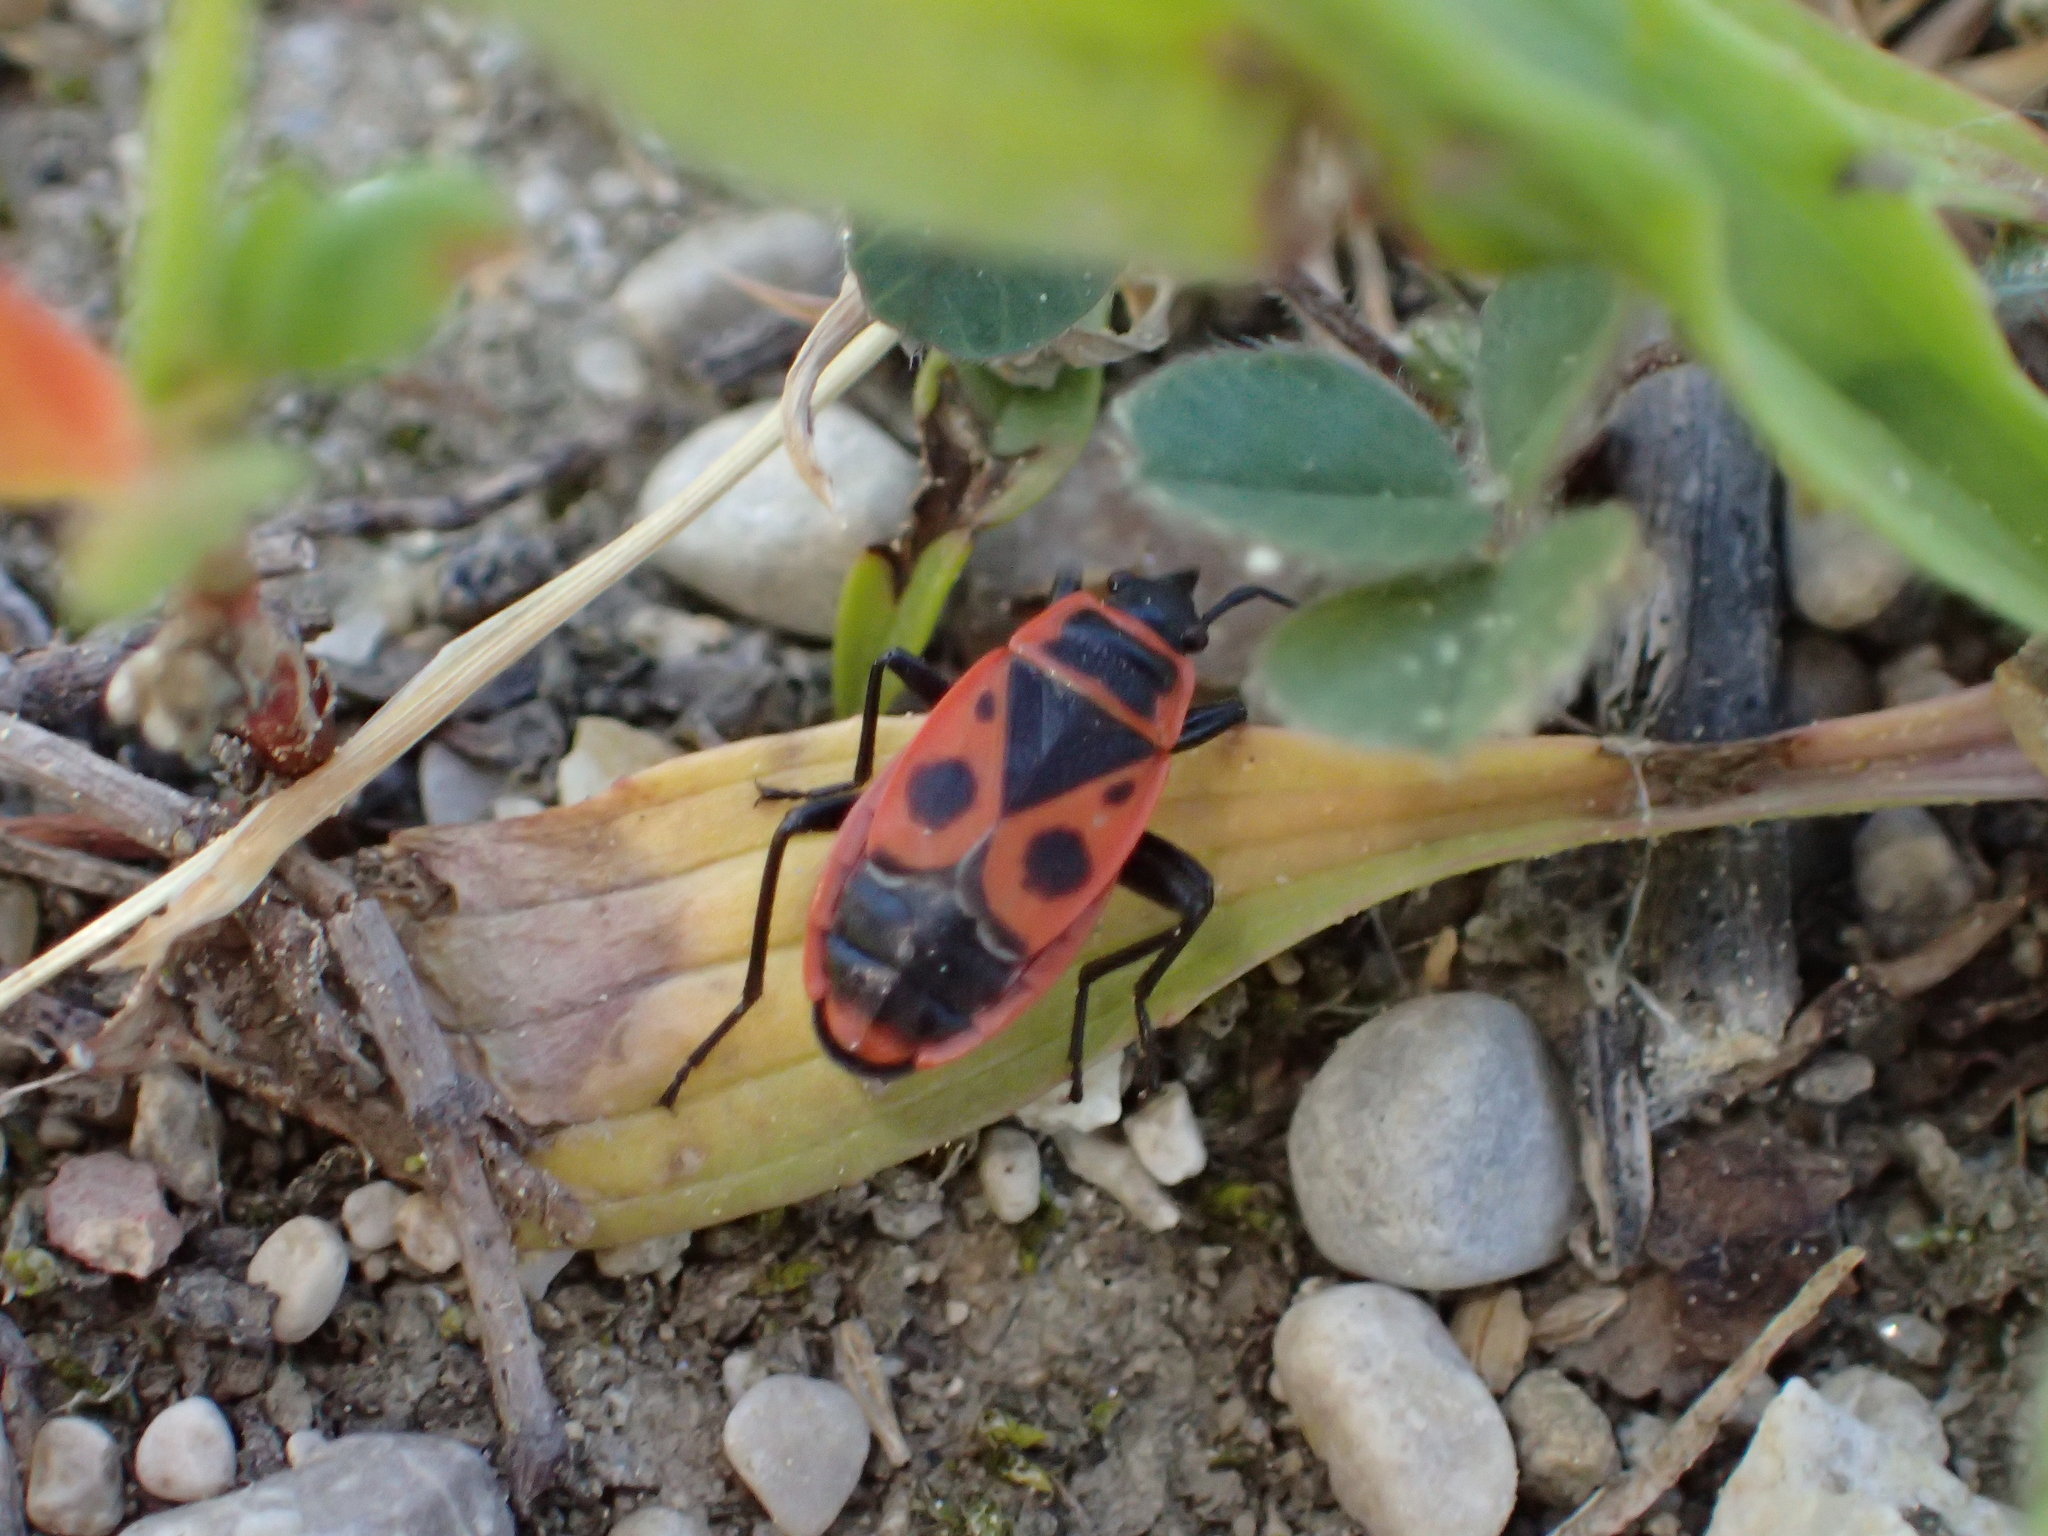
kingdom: Animalia
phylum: Arthropoda
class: Insecta
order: Hemiptera
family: Pyrrhocoridae
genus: Pyrrhocoris
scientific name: Pyrrhocoris apterus
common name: Firebug
